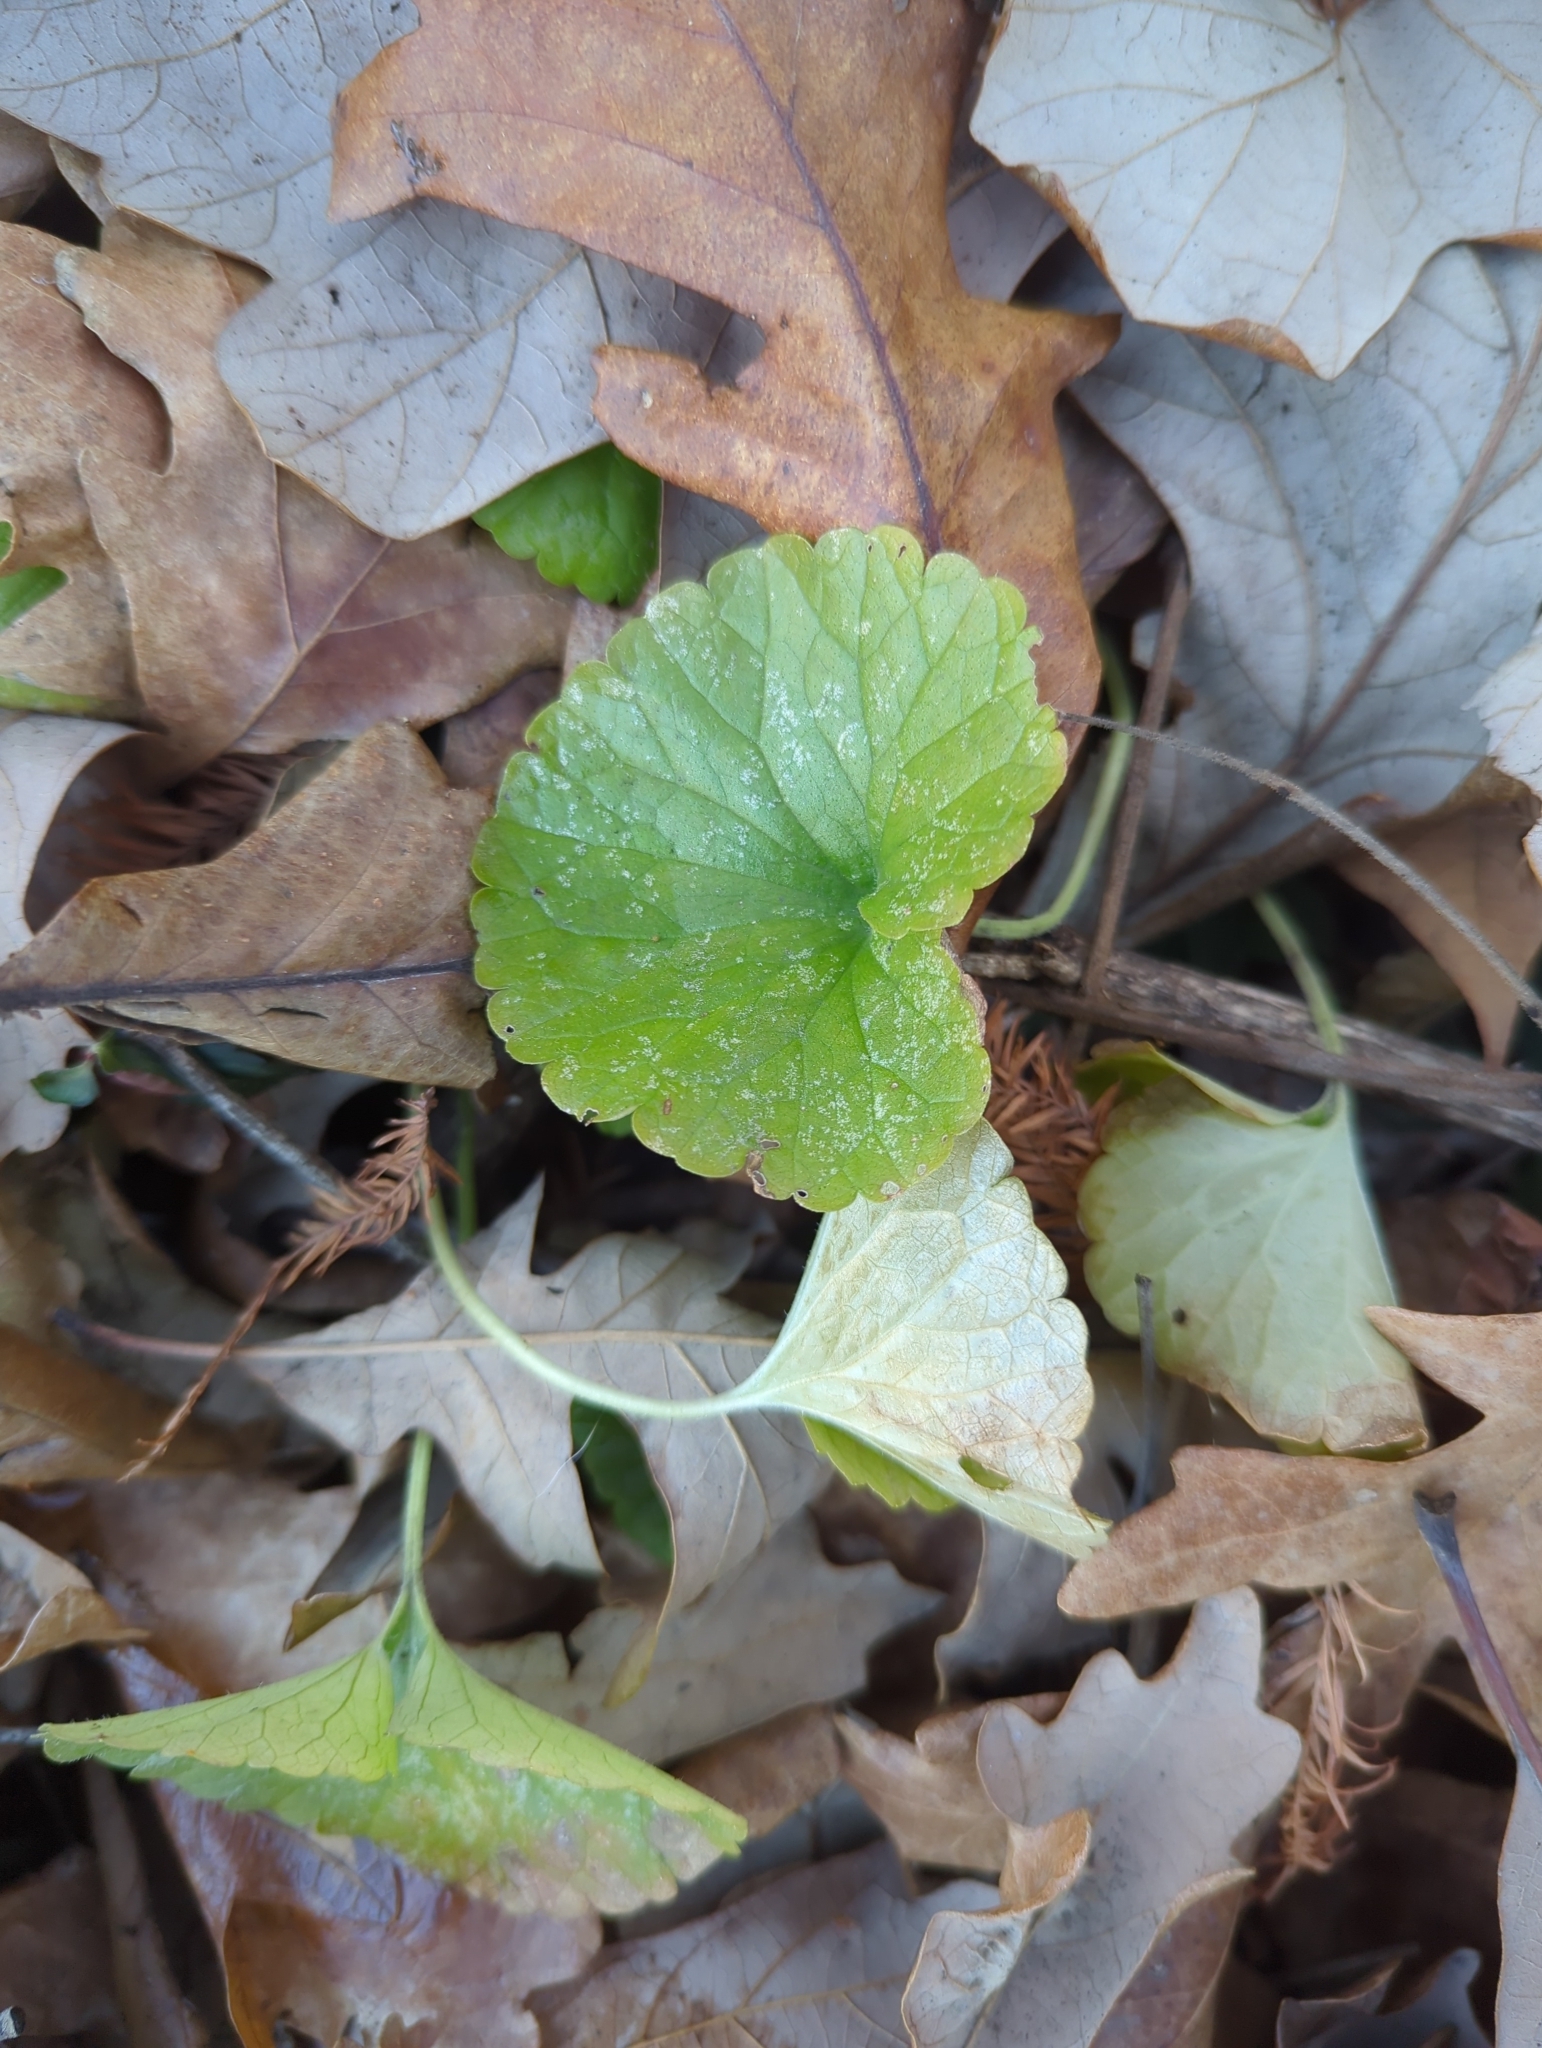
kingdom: Plantae
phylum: Tracheophyta
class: Magnoliopsida
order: Lamiales
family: Lamiaceae
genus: Glechoma
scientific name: Glechoma hederacea
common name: Ground ivy
